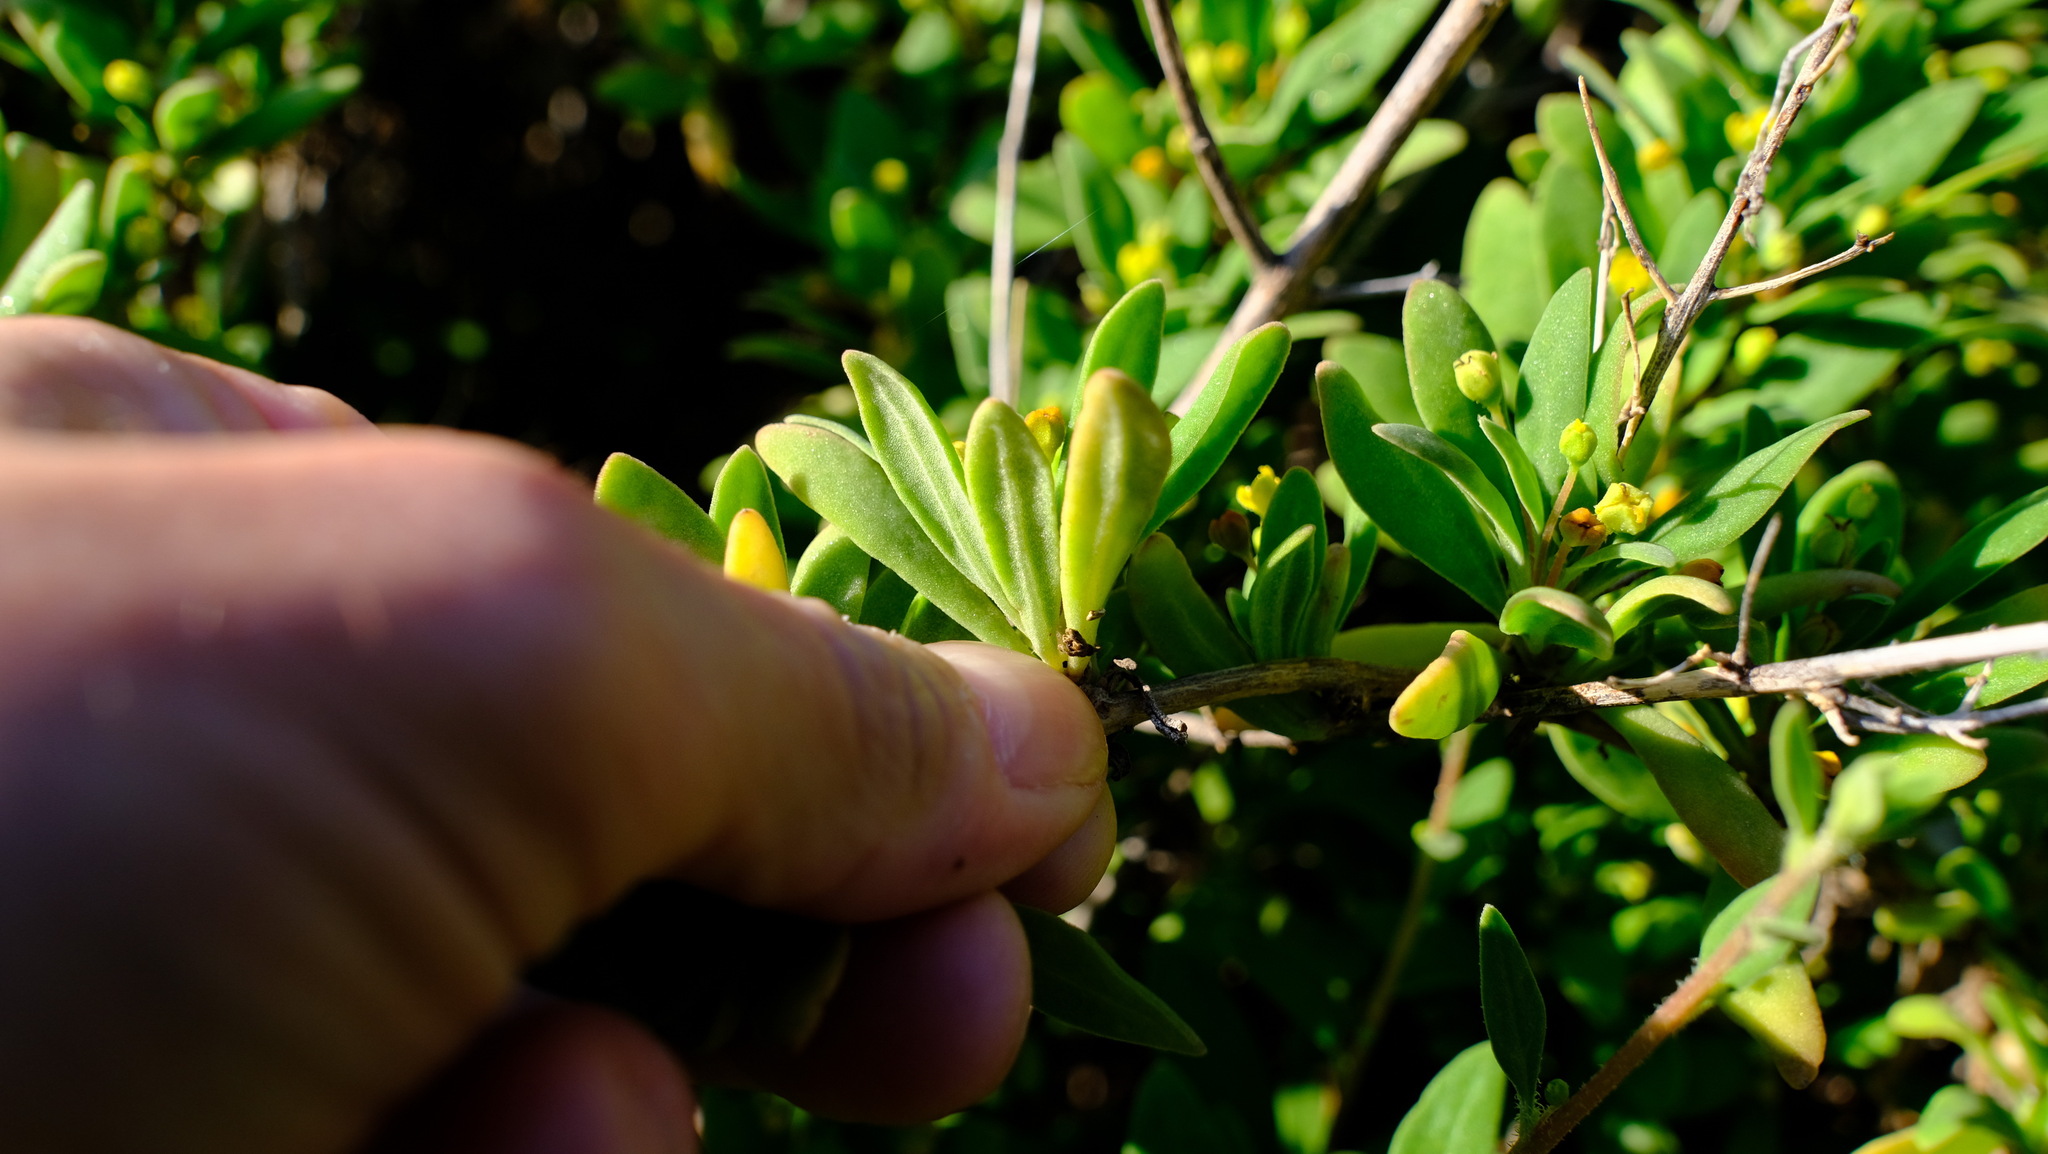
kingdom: Plantae
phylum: Tracheophyta
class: Magnoliopsida
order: Caryophyllales
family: Aizoaceae
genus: Tetragonia
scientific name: Tetragonia implexicoma
